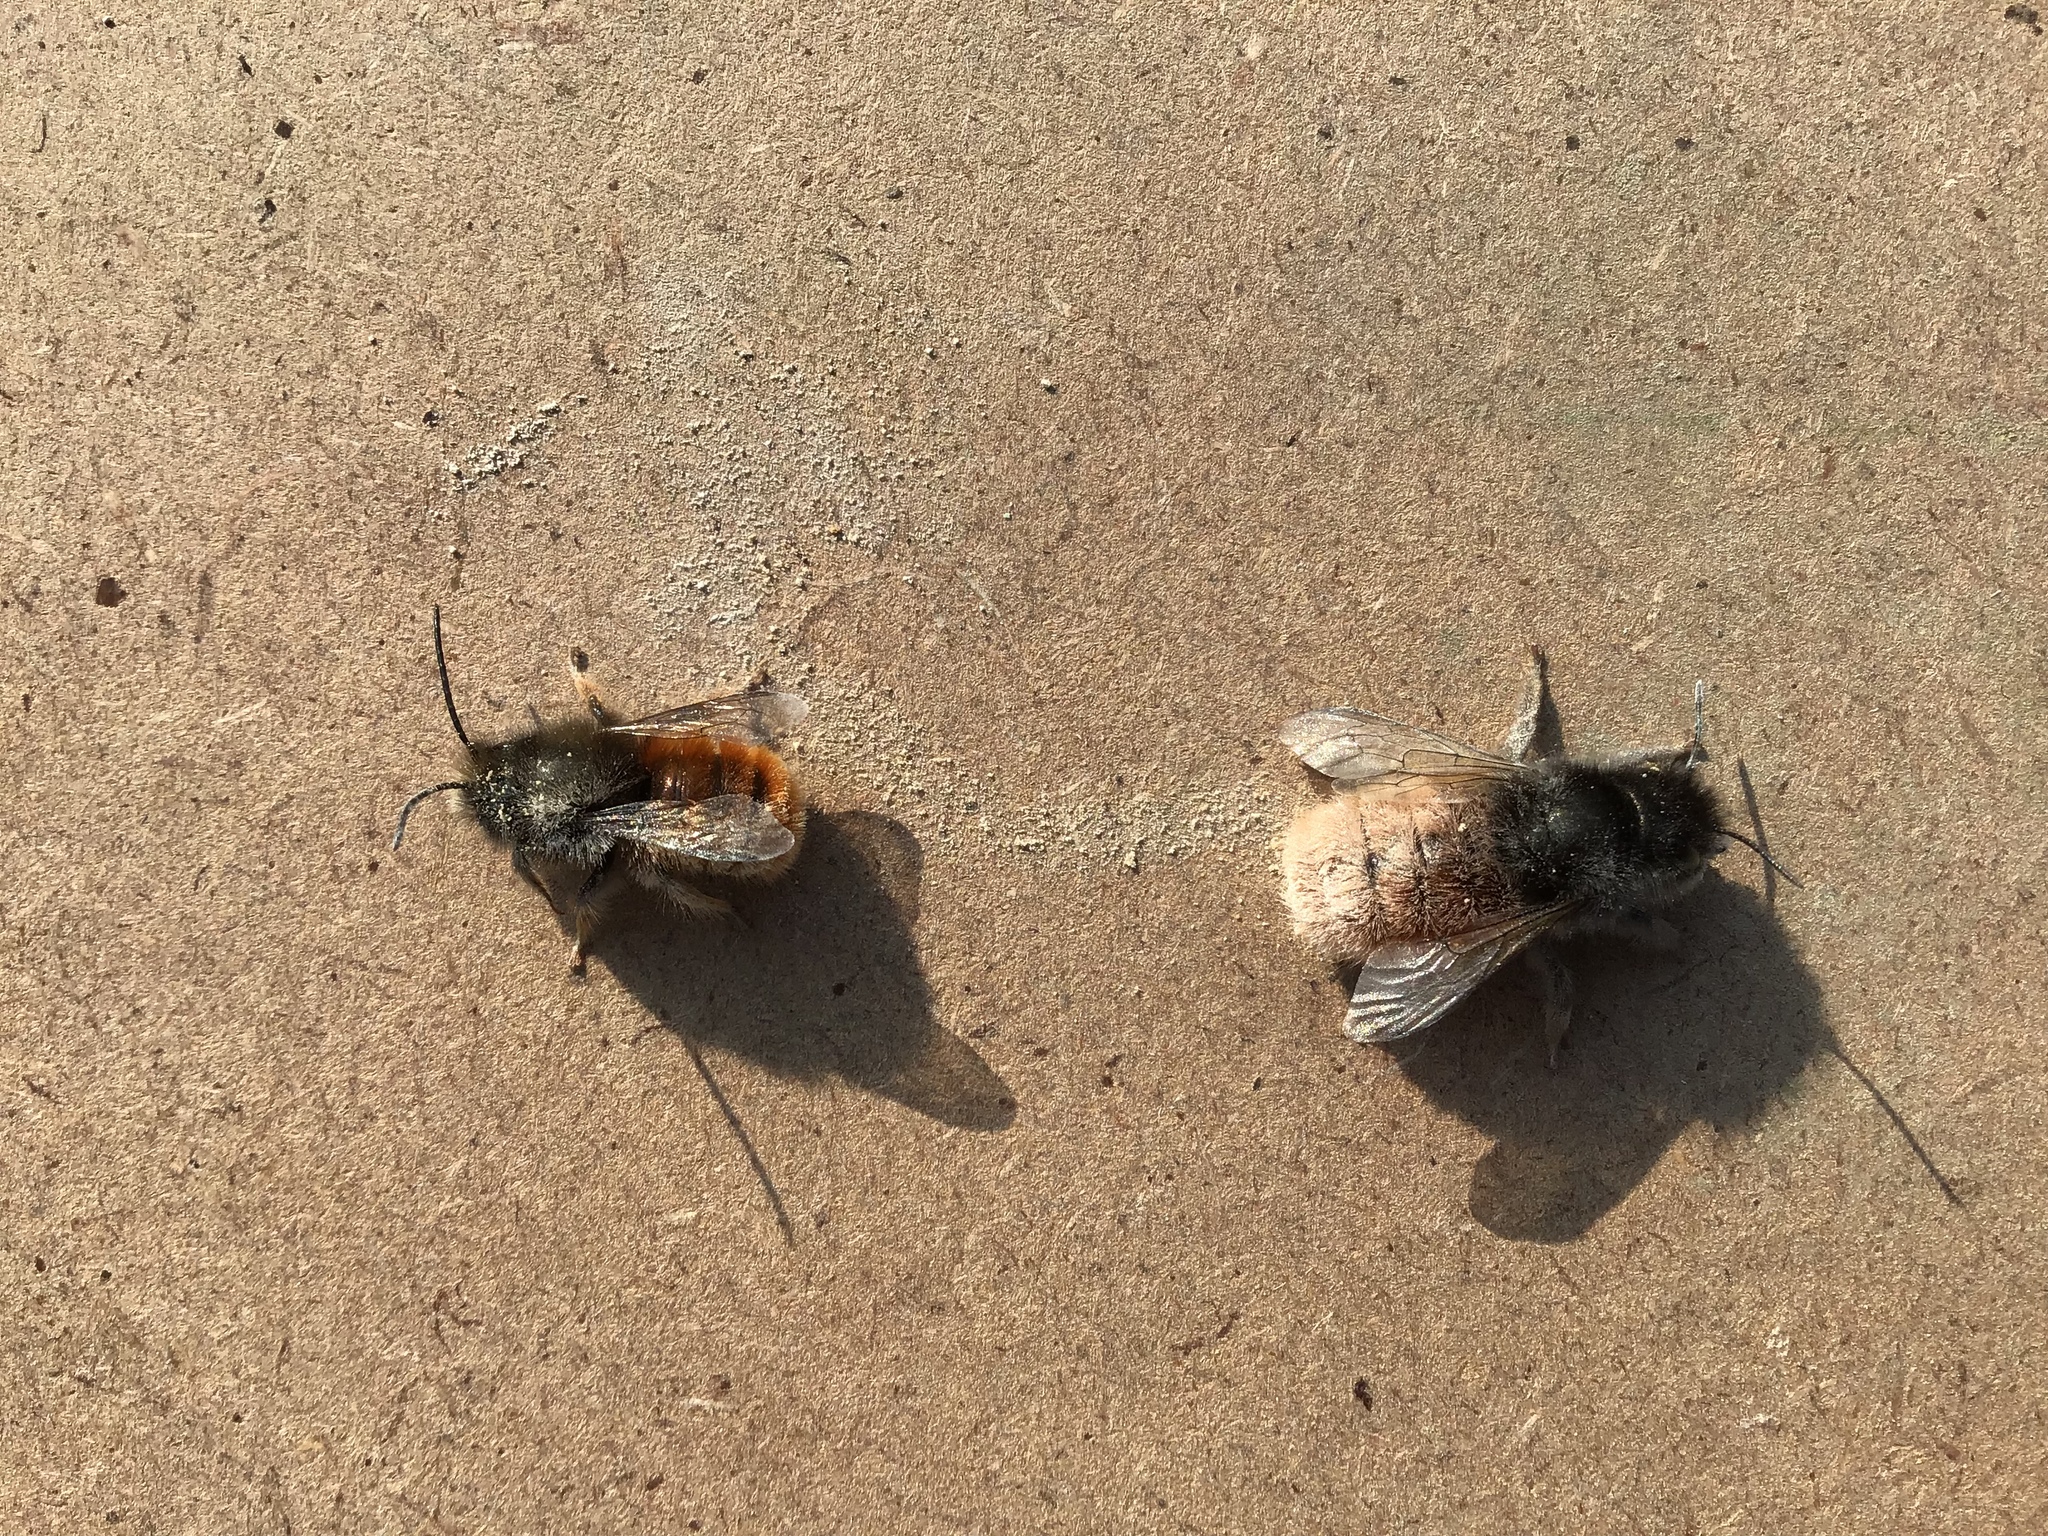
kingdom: Animalia
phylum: Arthropoda
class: Insecta
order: Hymenoptera
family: Megachilidae
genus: Osmia
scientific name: Osmia cornuta
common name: Mason bee
